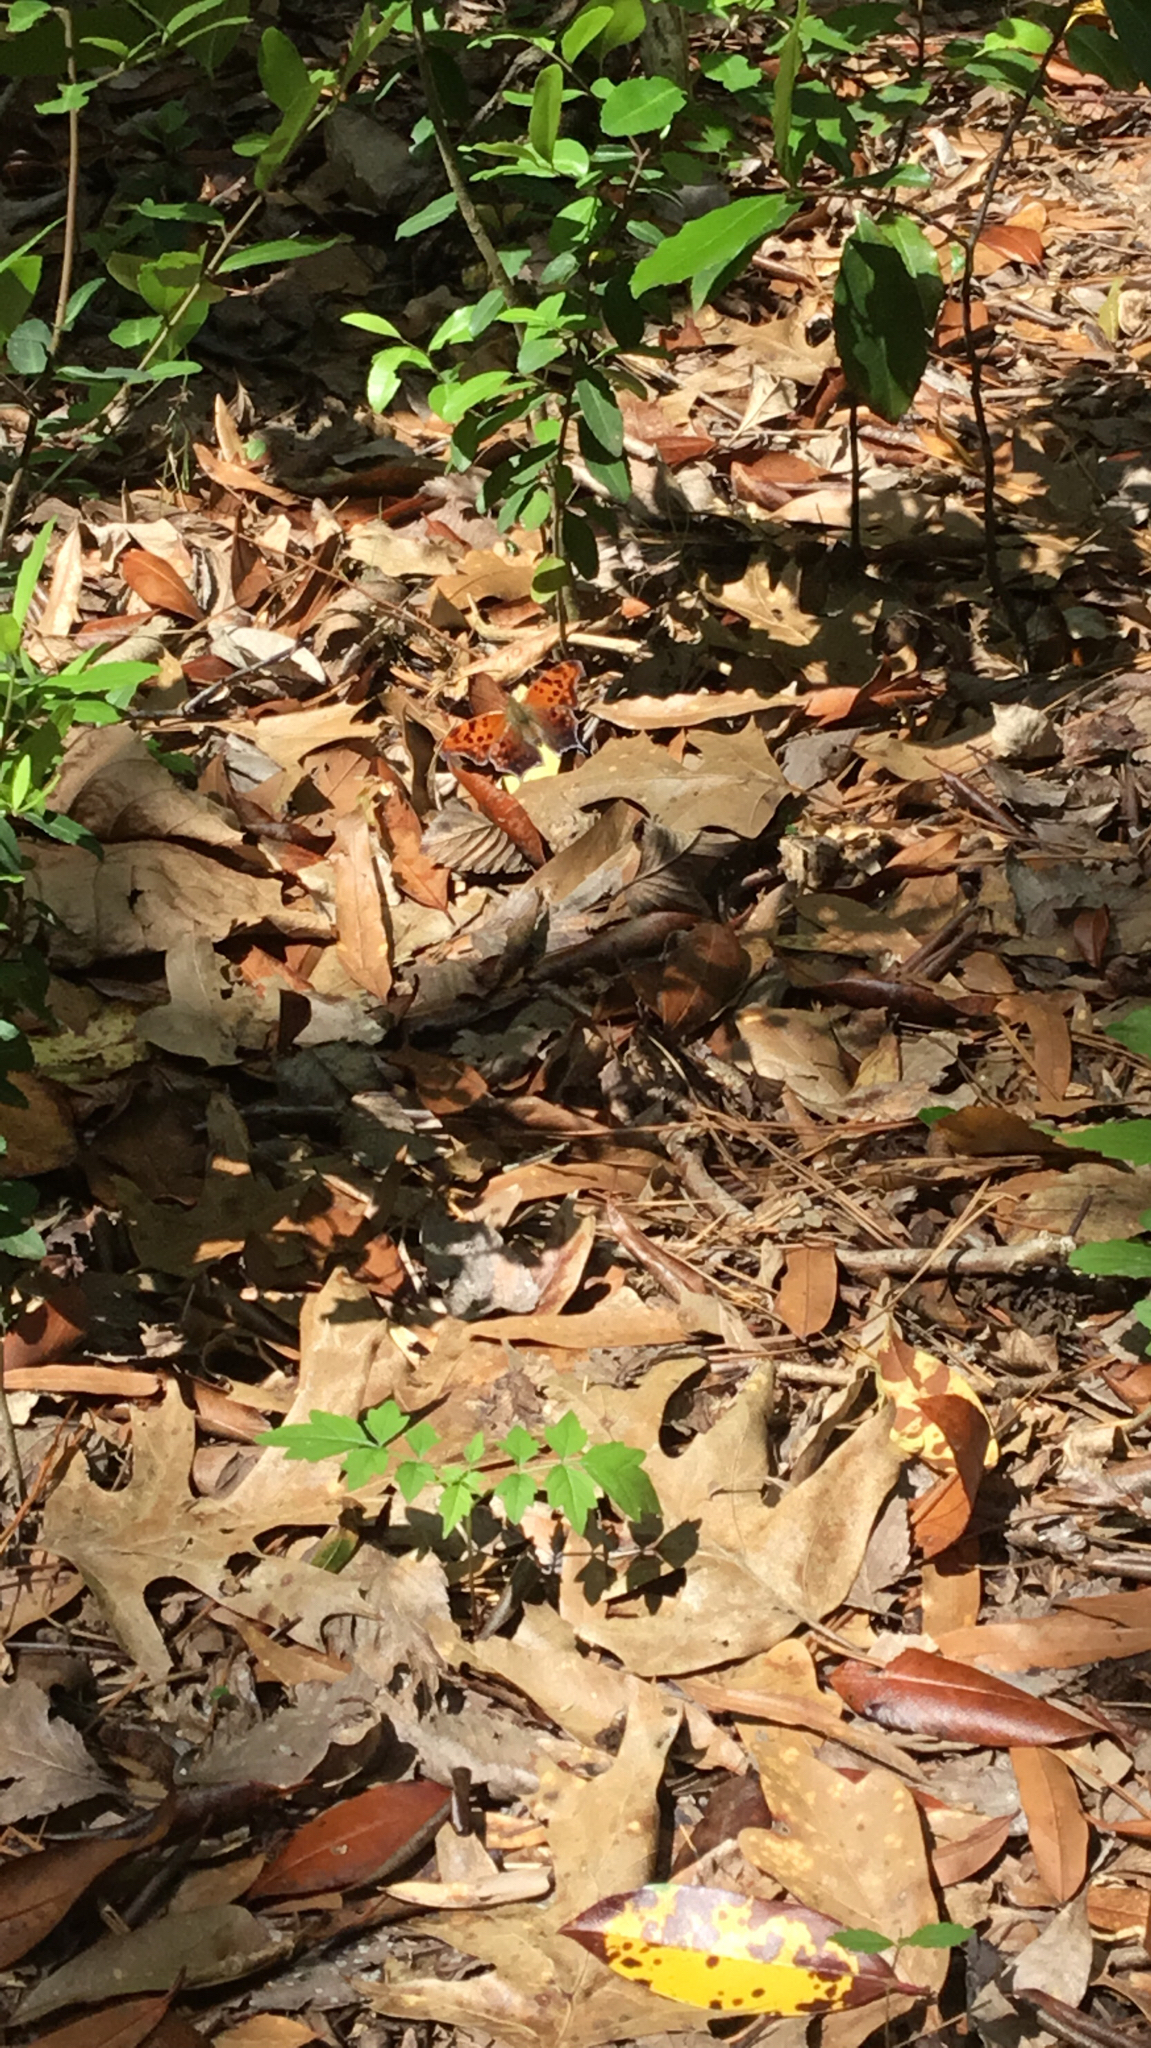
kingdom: Animalia
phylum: Arthropoda
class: Insecta
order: Lepidoptera
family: Nymphalidae
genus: Polygonia
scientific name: Polygonia interrogationis
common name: Question mark
